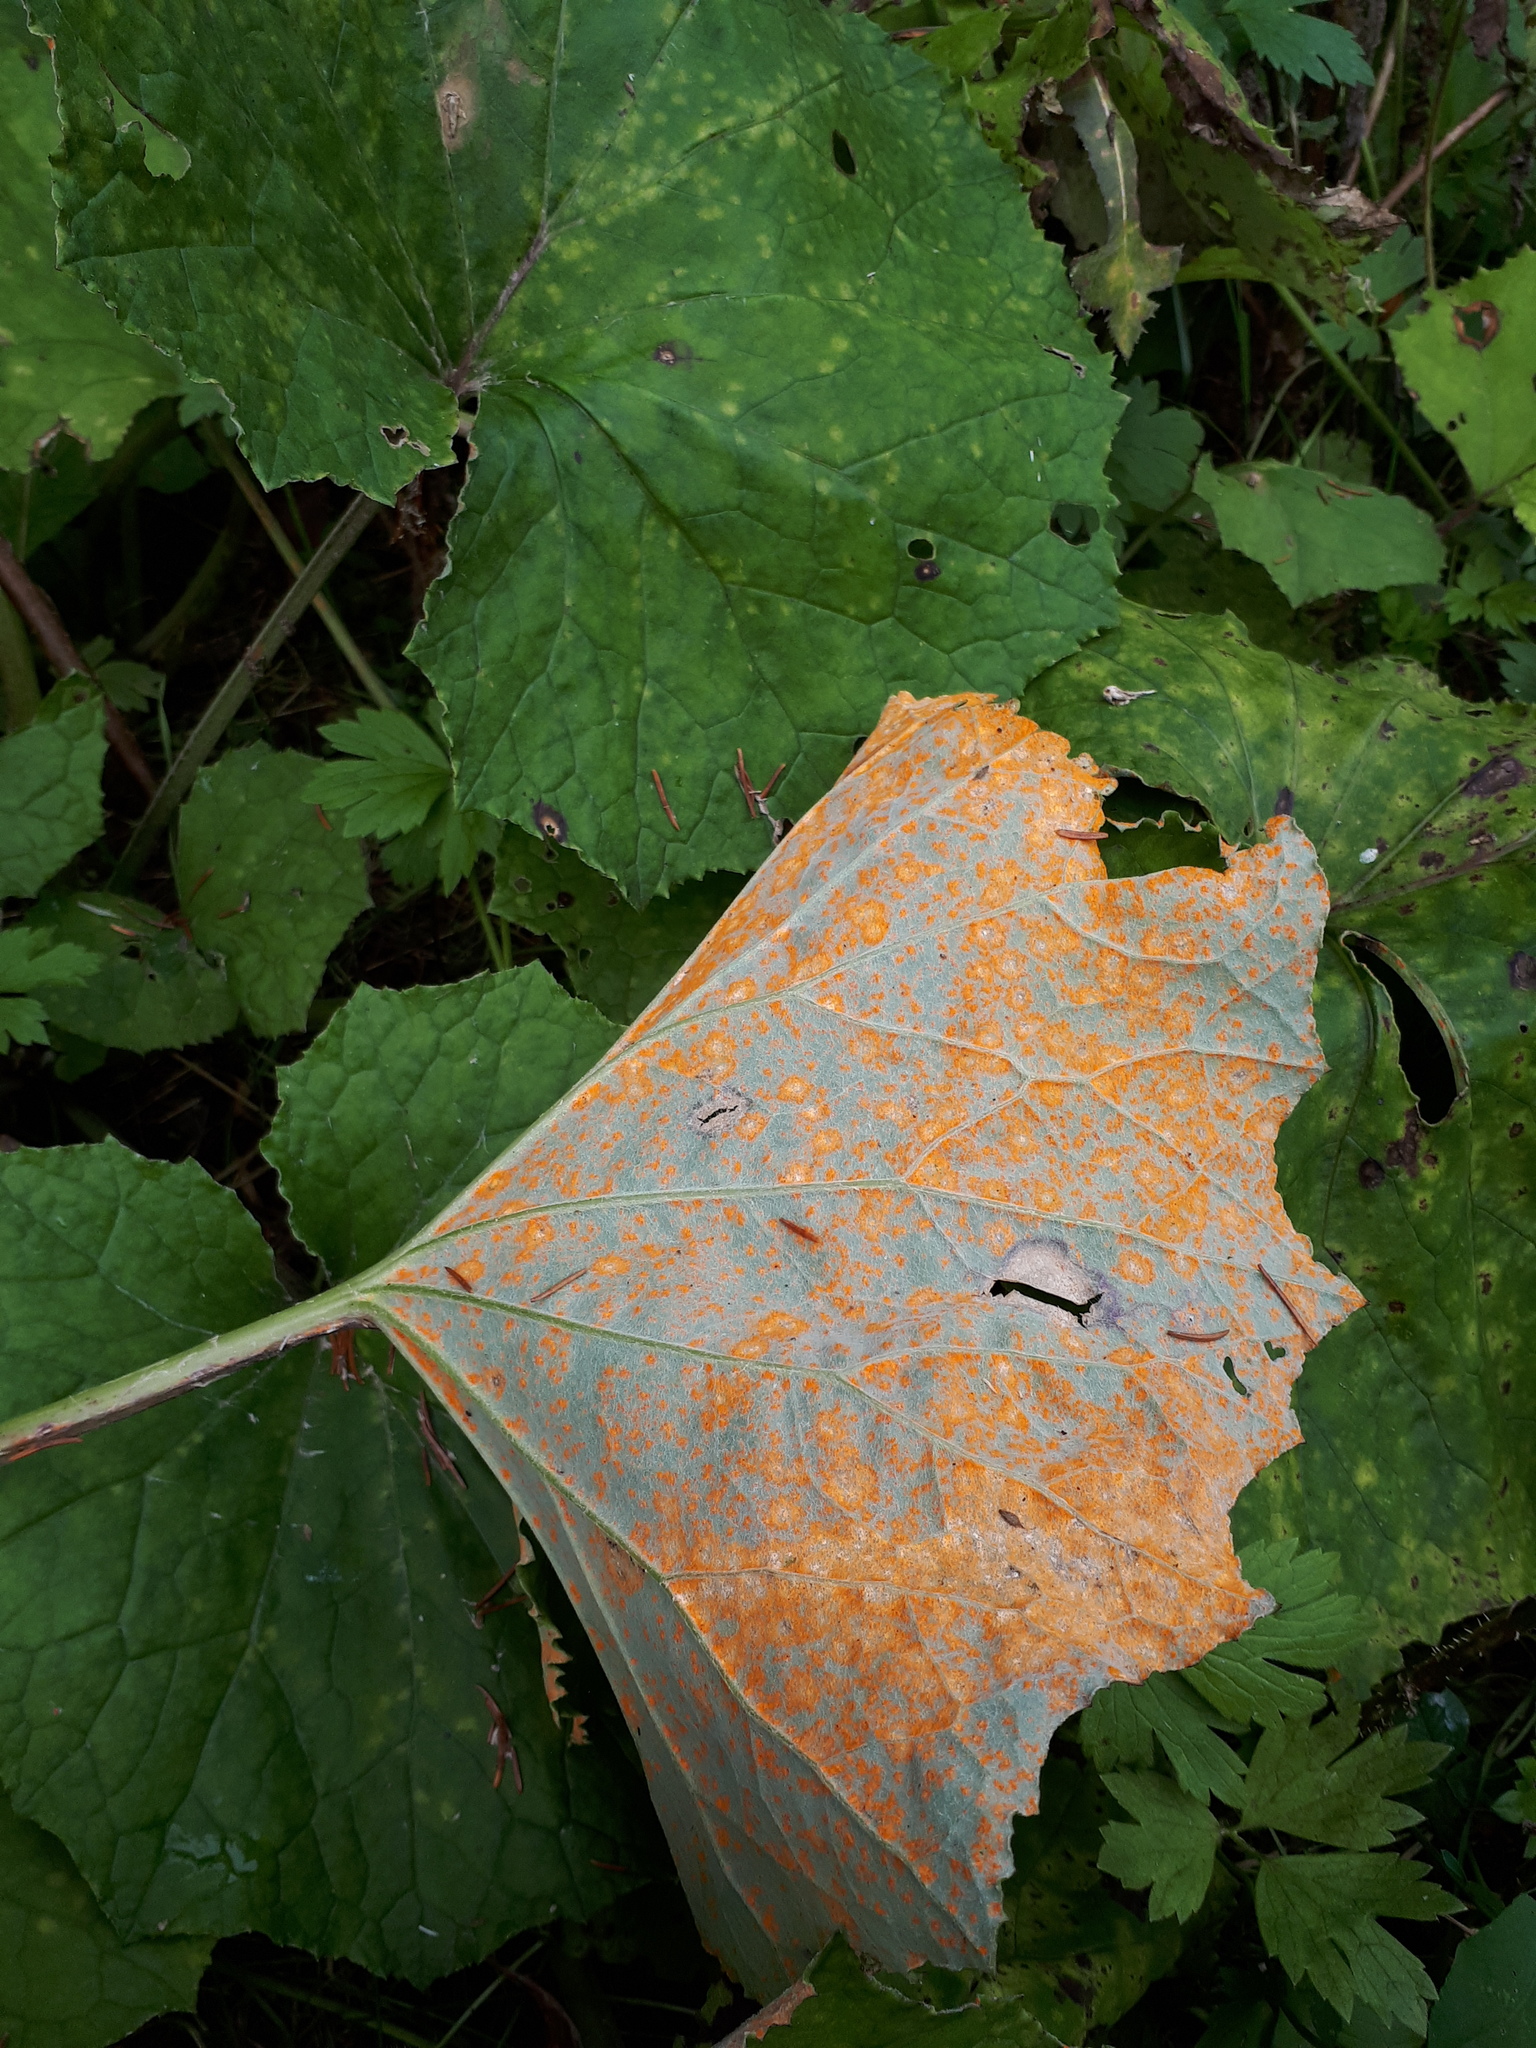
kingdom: Fungi
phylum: Basidiomycota
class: Pucciniomycetes
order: Pucciniales
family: Coleosporiaceae
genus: Coleosporium
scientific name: Coleosporium tussilaginis
